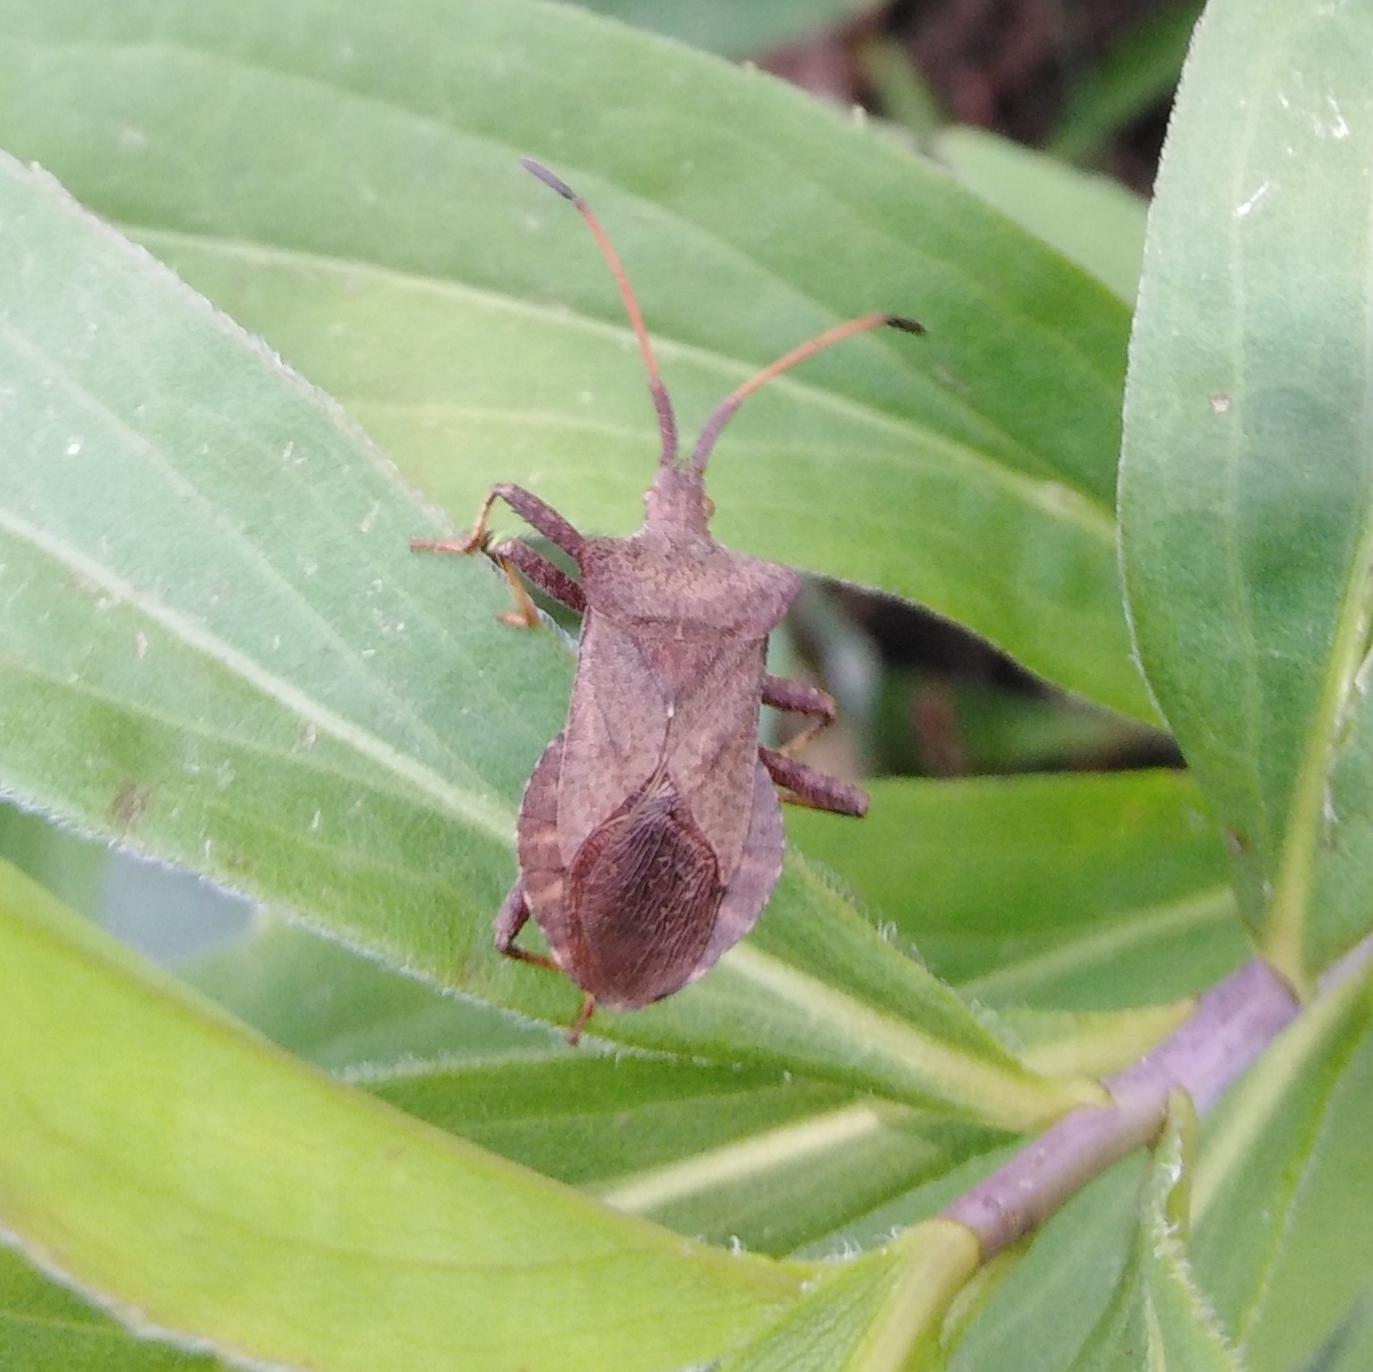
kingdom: Animalia
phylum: Arthropoda
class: Insecta
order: Hemiptera
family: Coreidae
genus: Coreus
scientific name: Coreus marginatus
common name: Dock bug
